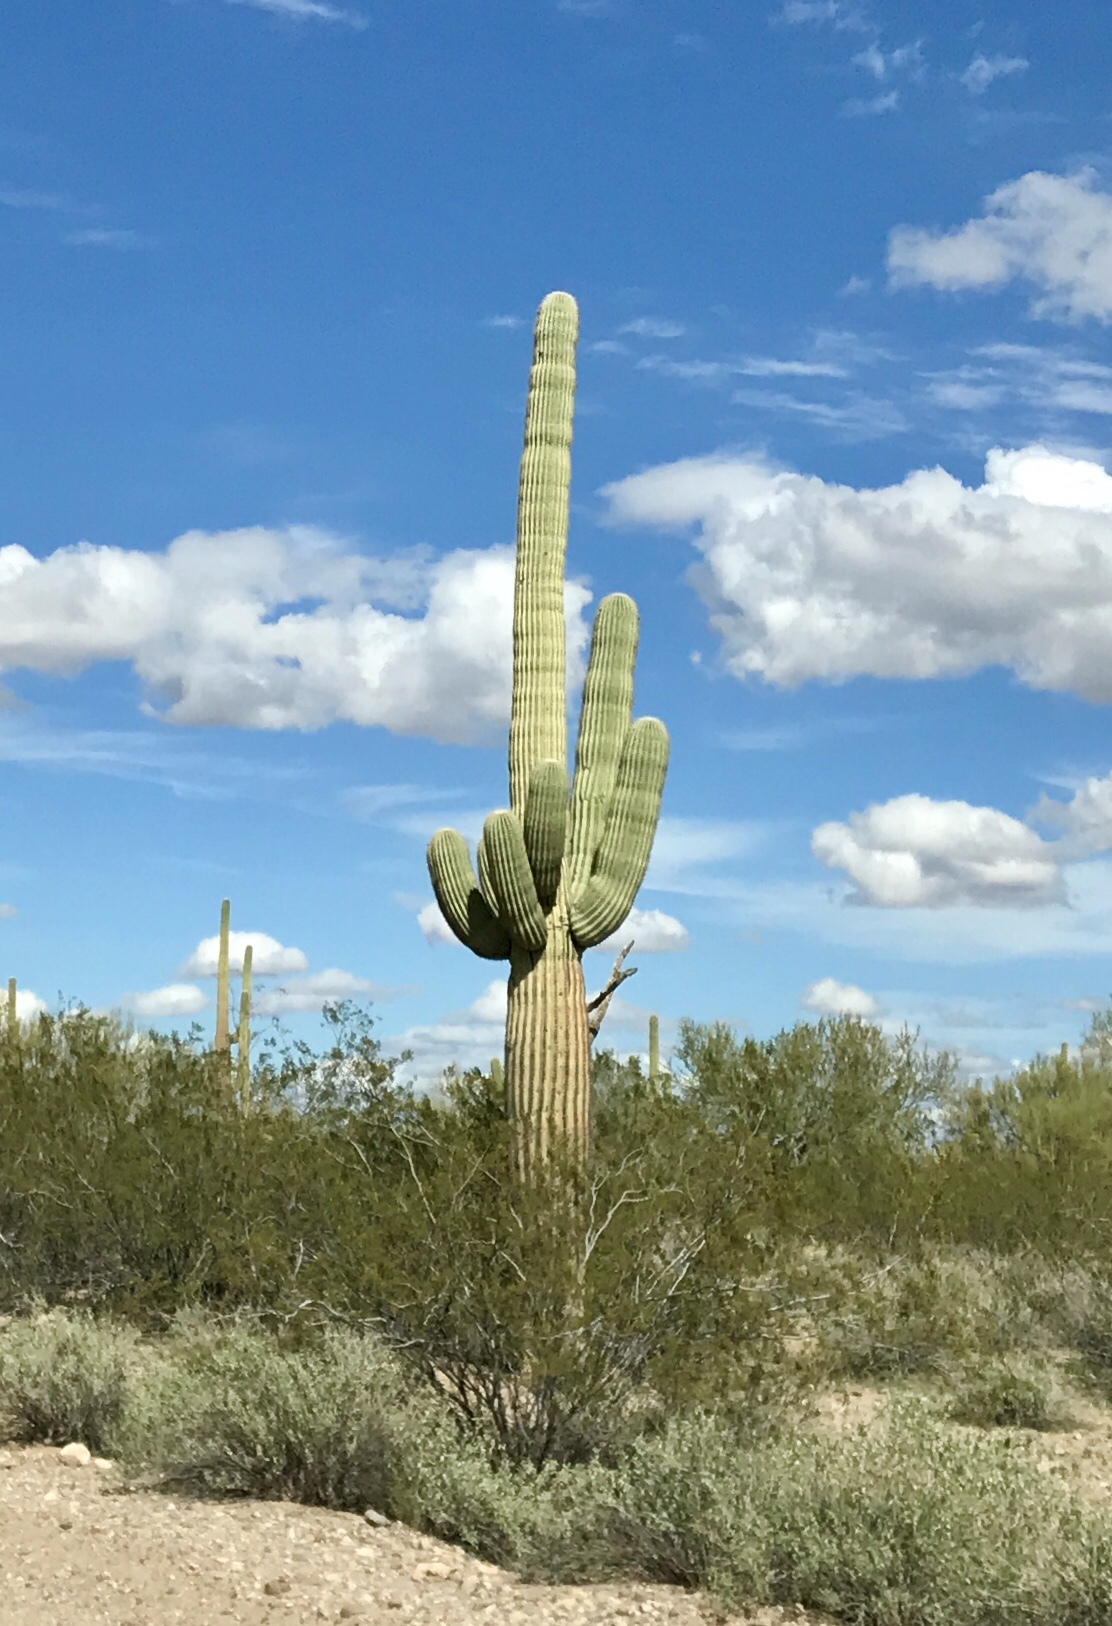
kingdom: Plantae
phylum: Tracheophyta
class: Magnoliopsida
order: Caryophyllales
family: Cactaceae
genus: Carnegiea
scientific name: Carnegiea gigantea
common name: Saguaro
